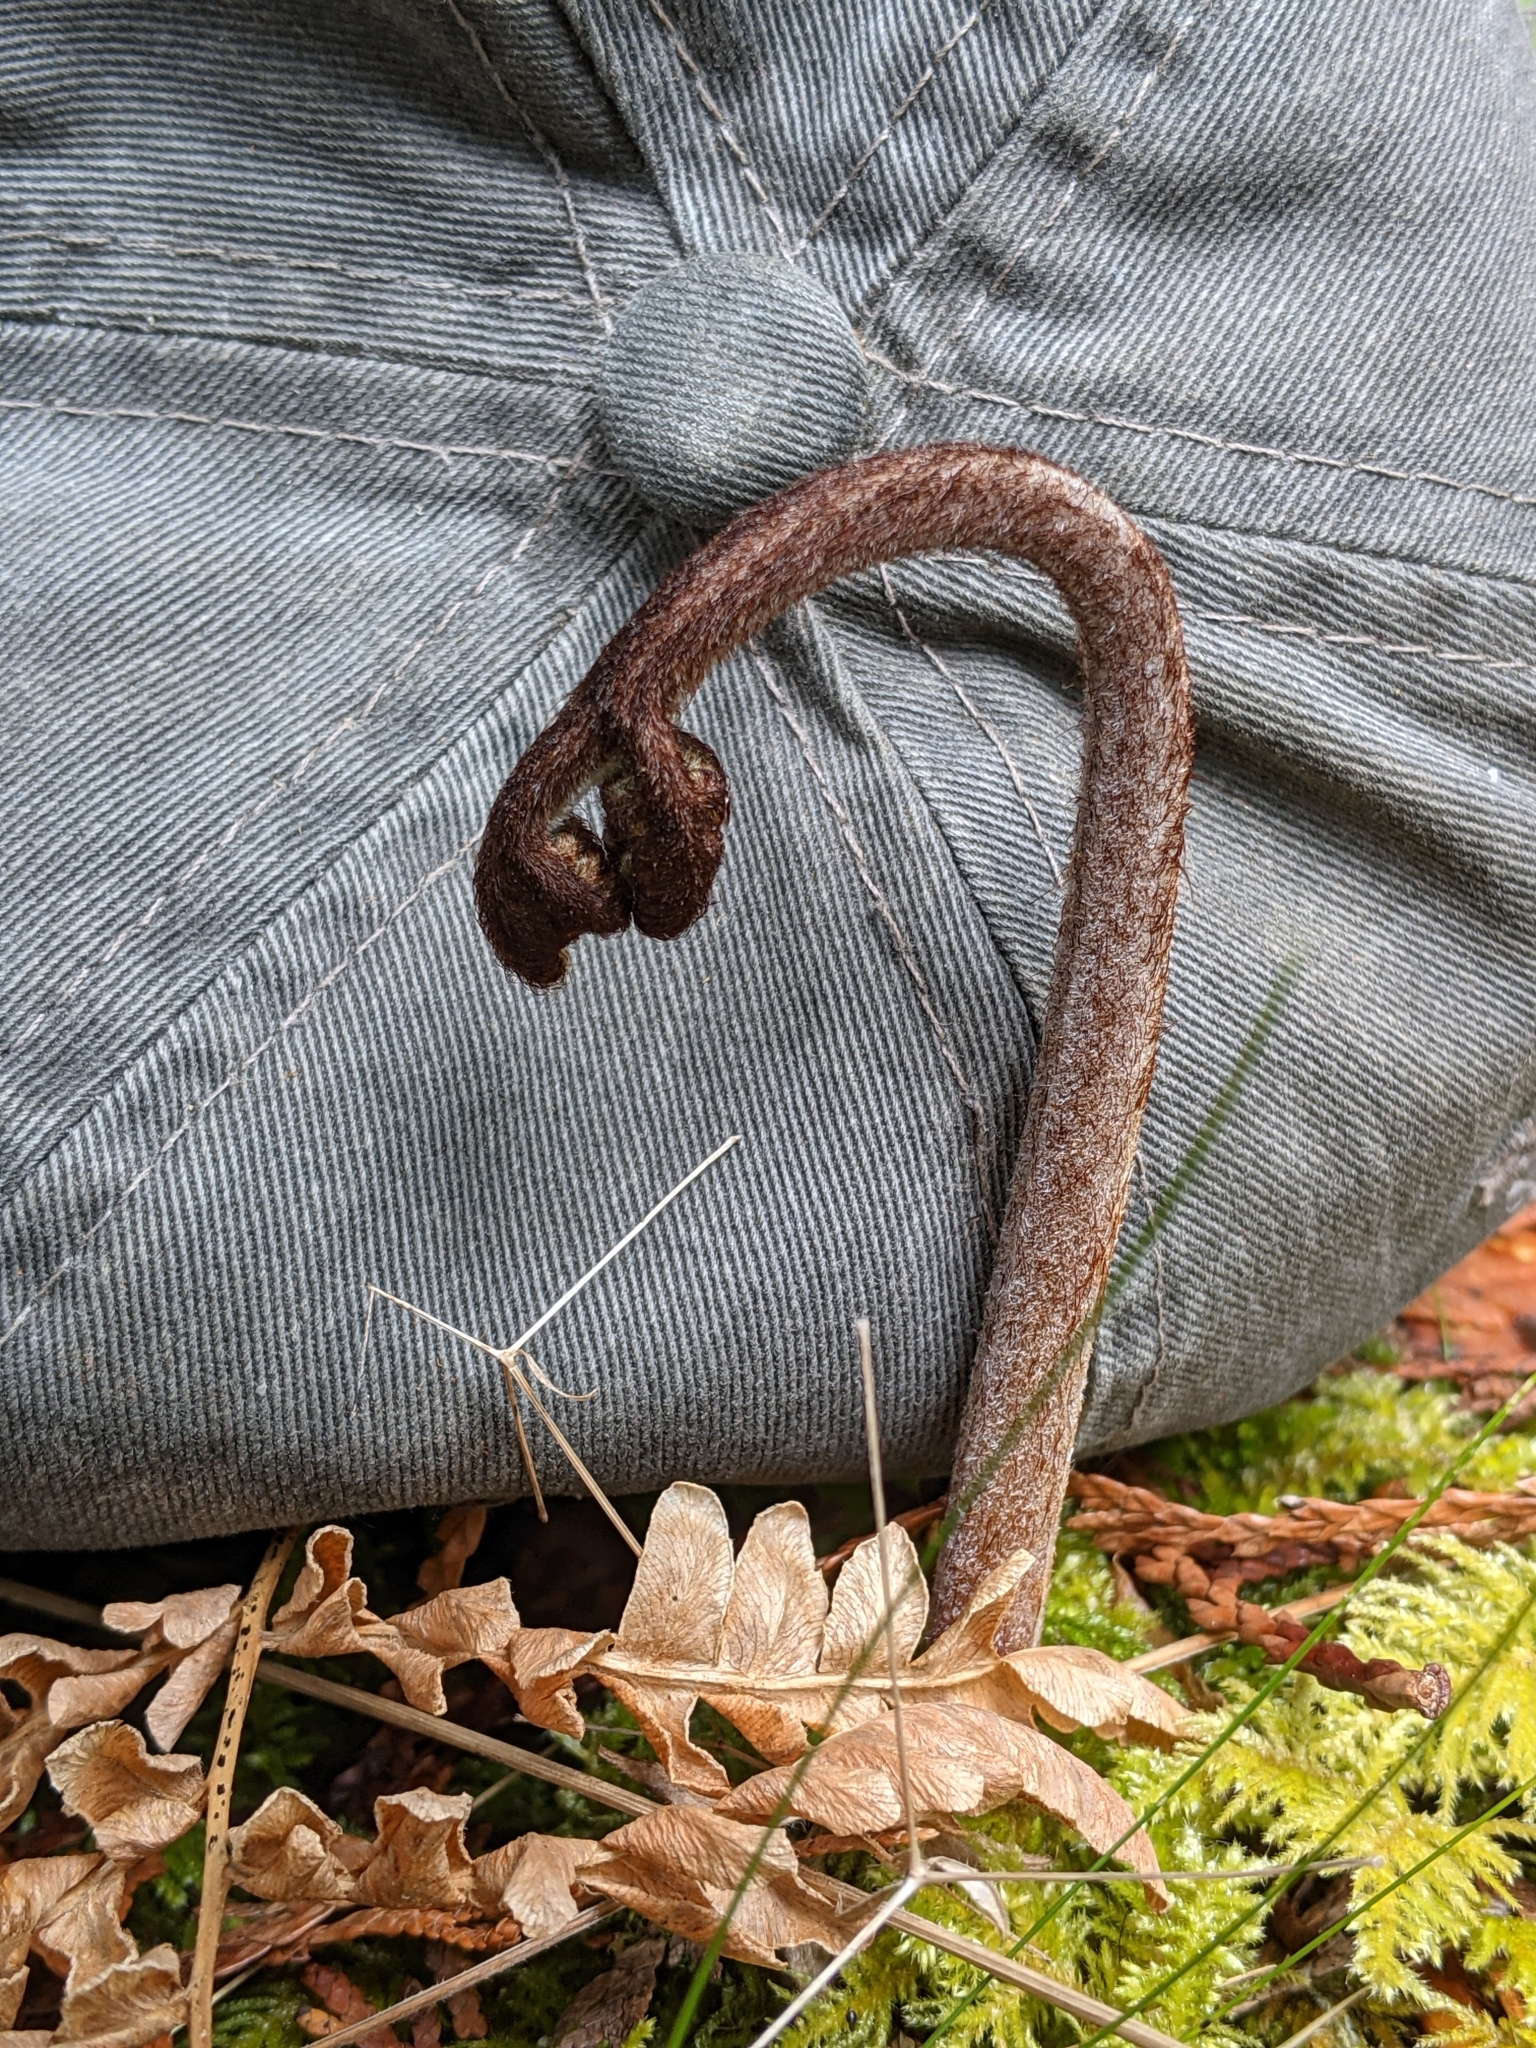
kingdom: Plantae
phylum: Tracheophyta
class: Polypodiopsida
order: Polypodiales
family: Dennstaedtiaceae
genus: Pteridium
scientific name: Pteridium aquilinum
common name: Bracken
